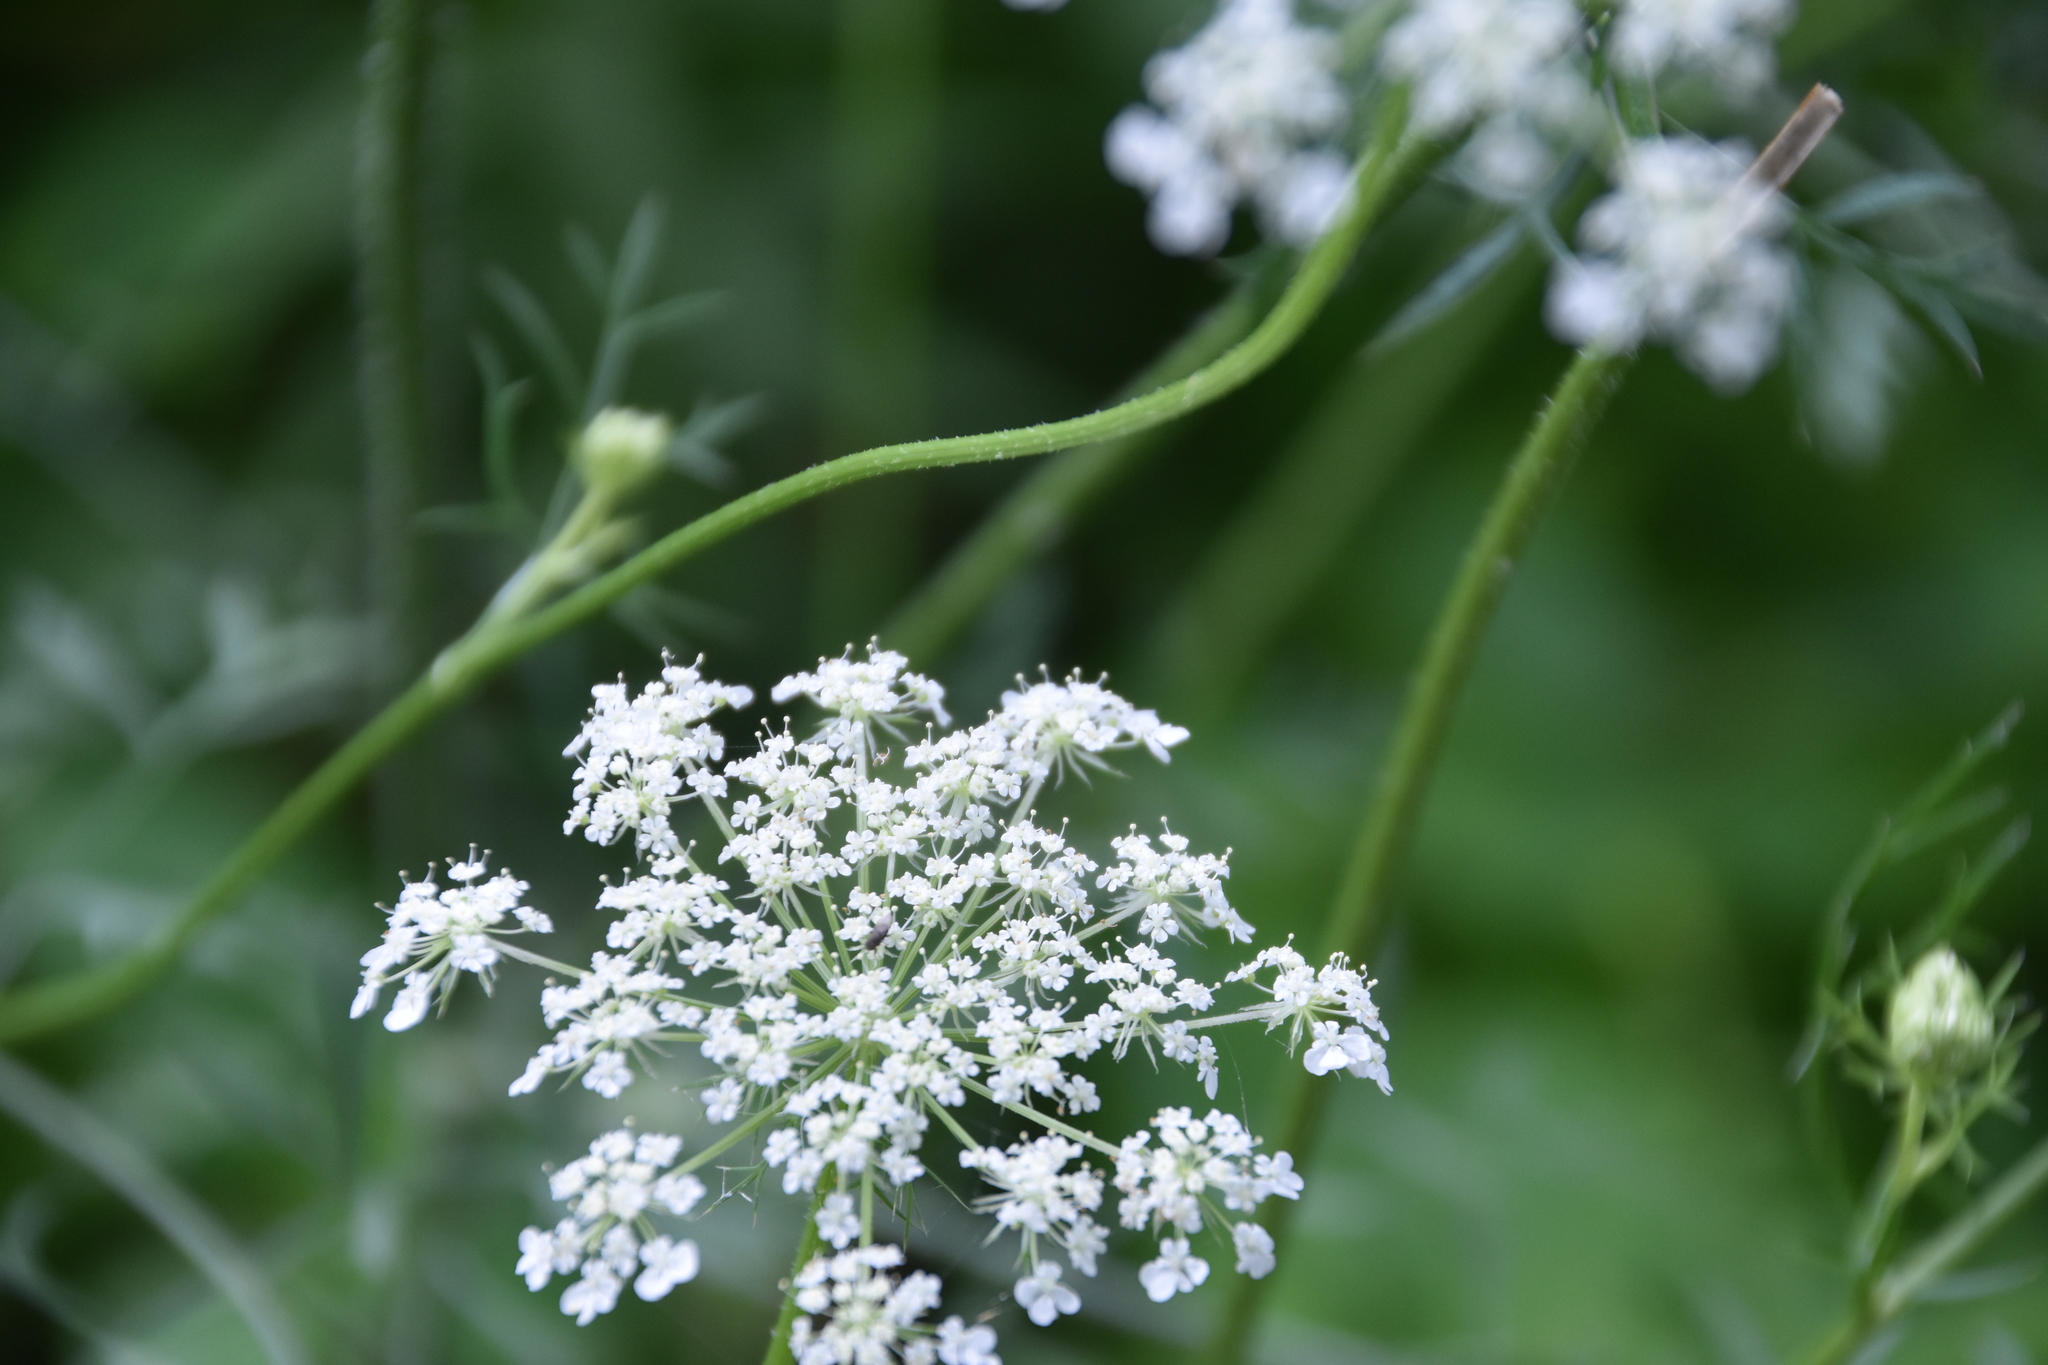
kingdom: Plantae
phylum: Tracheophyta
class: Magnoliopsida
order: Apiales
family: Apiaceae
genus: Daucus
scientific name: Daucus carota
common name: Wild carrot
